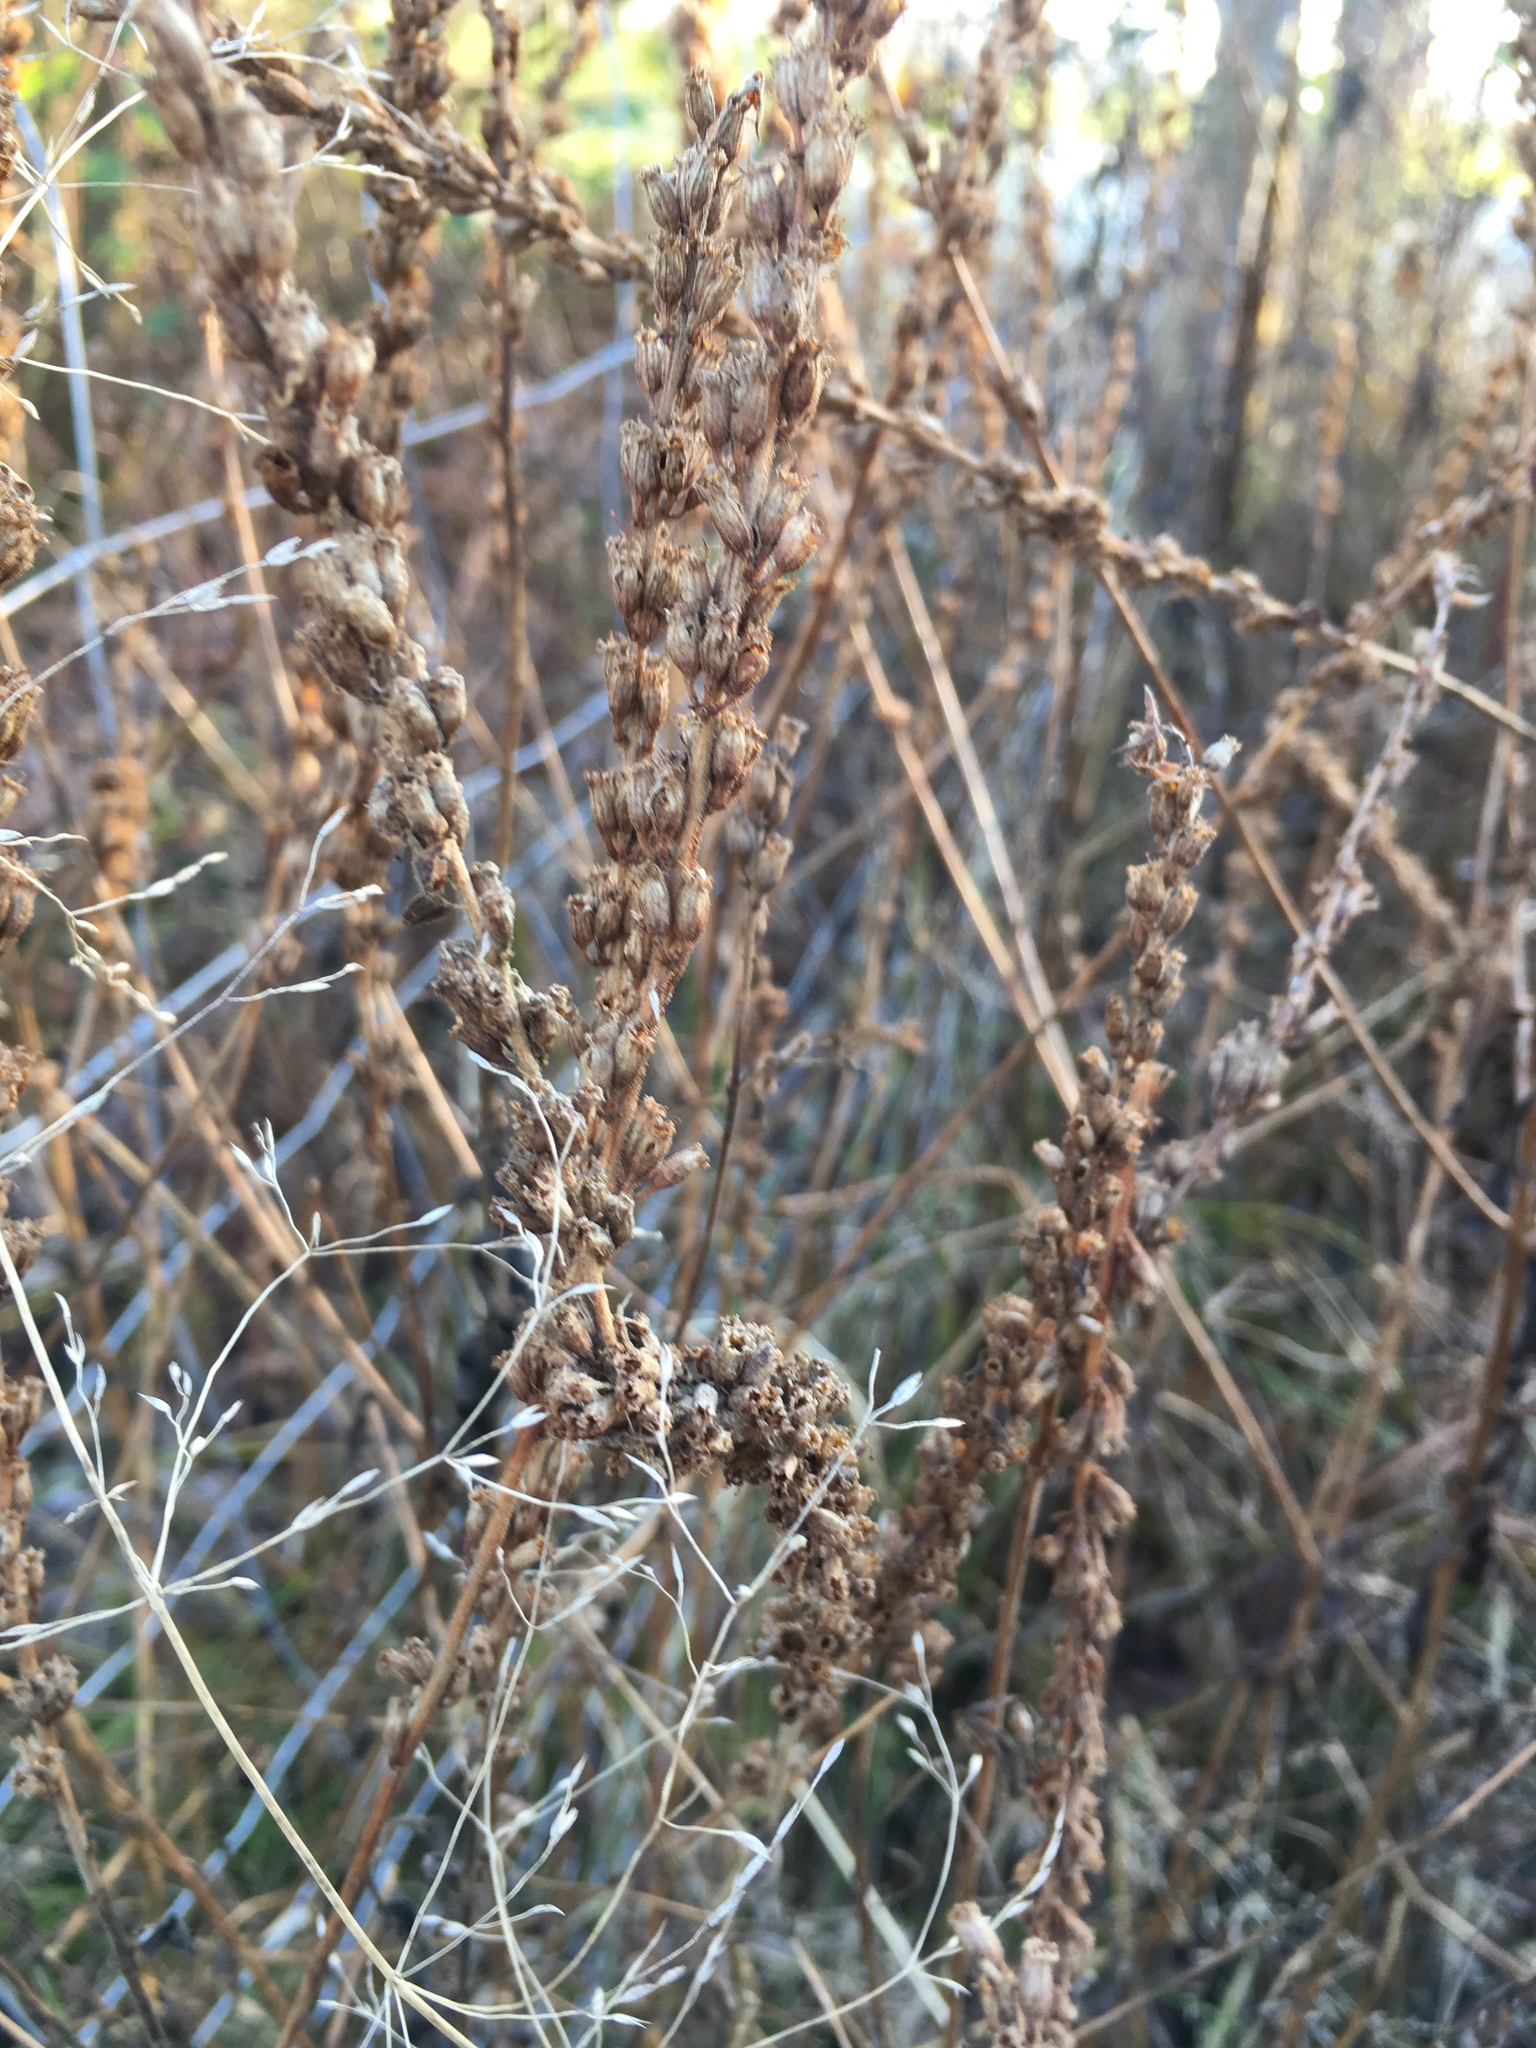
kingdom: Plantae
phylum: Tracheophyta
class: Magnoliopsida
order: Myrtales
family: Lythraceae
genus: Lythrum
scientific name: Lythrum salicaria
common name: Purple loosestrife
